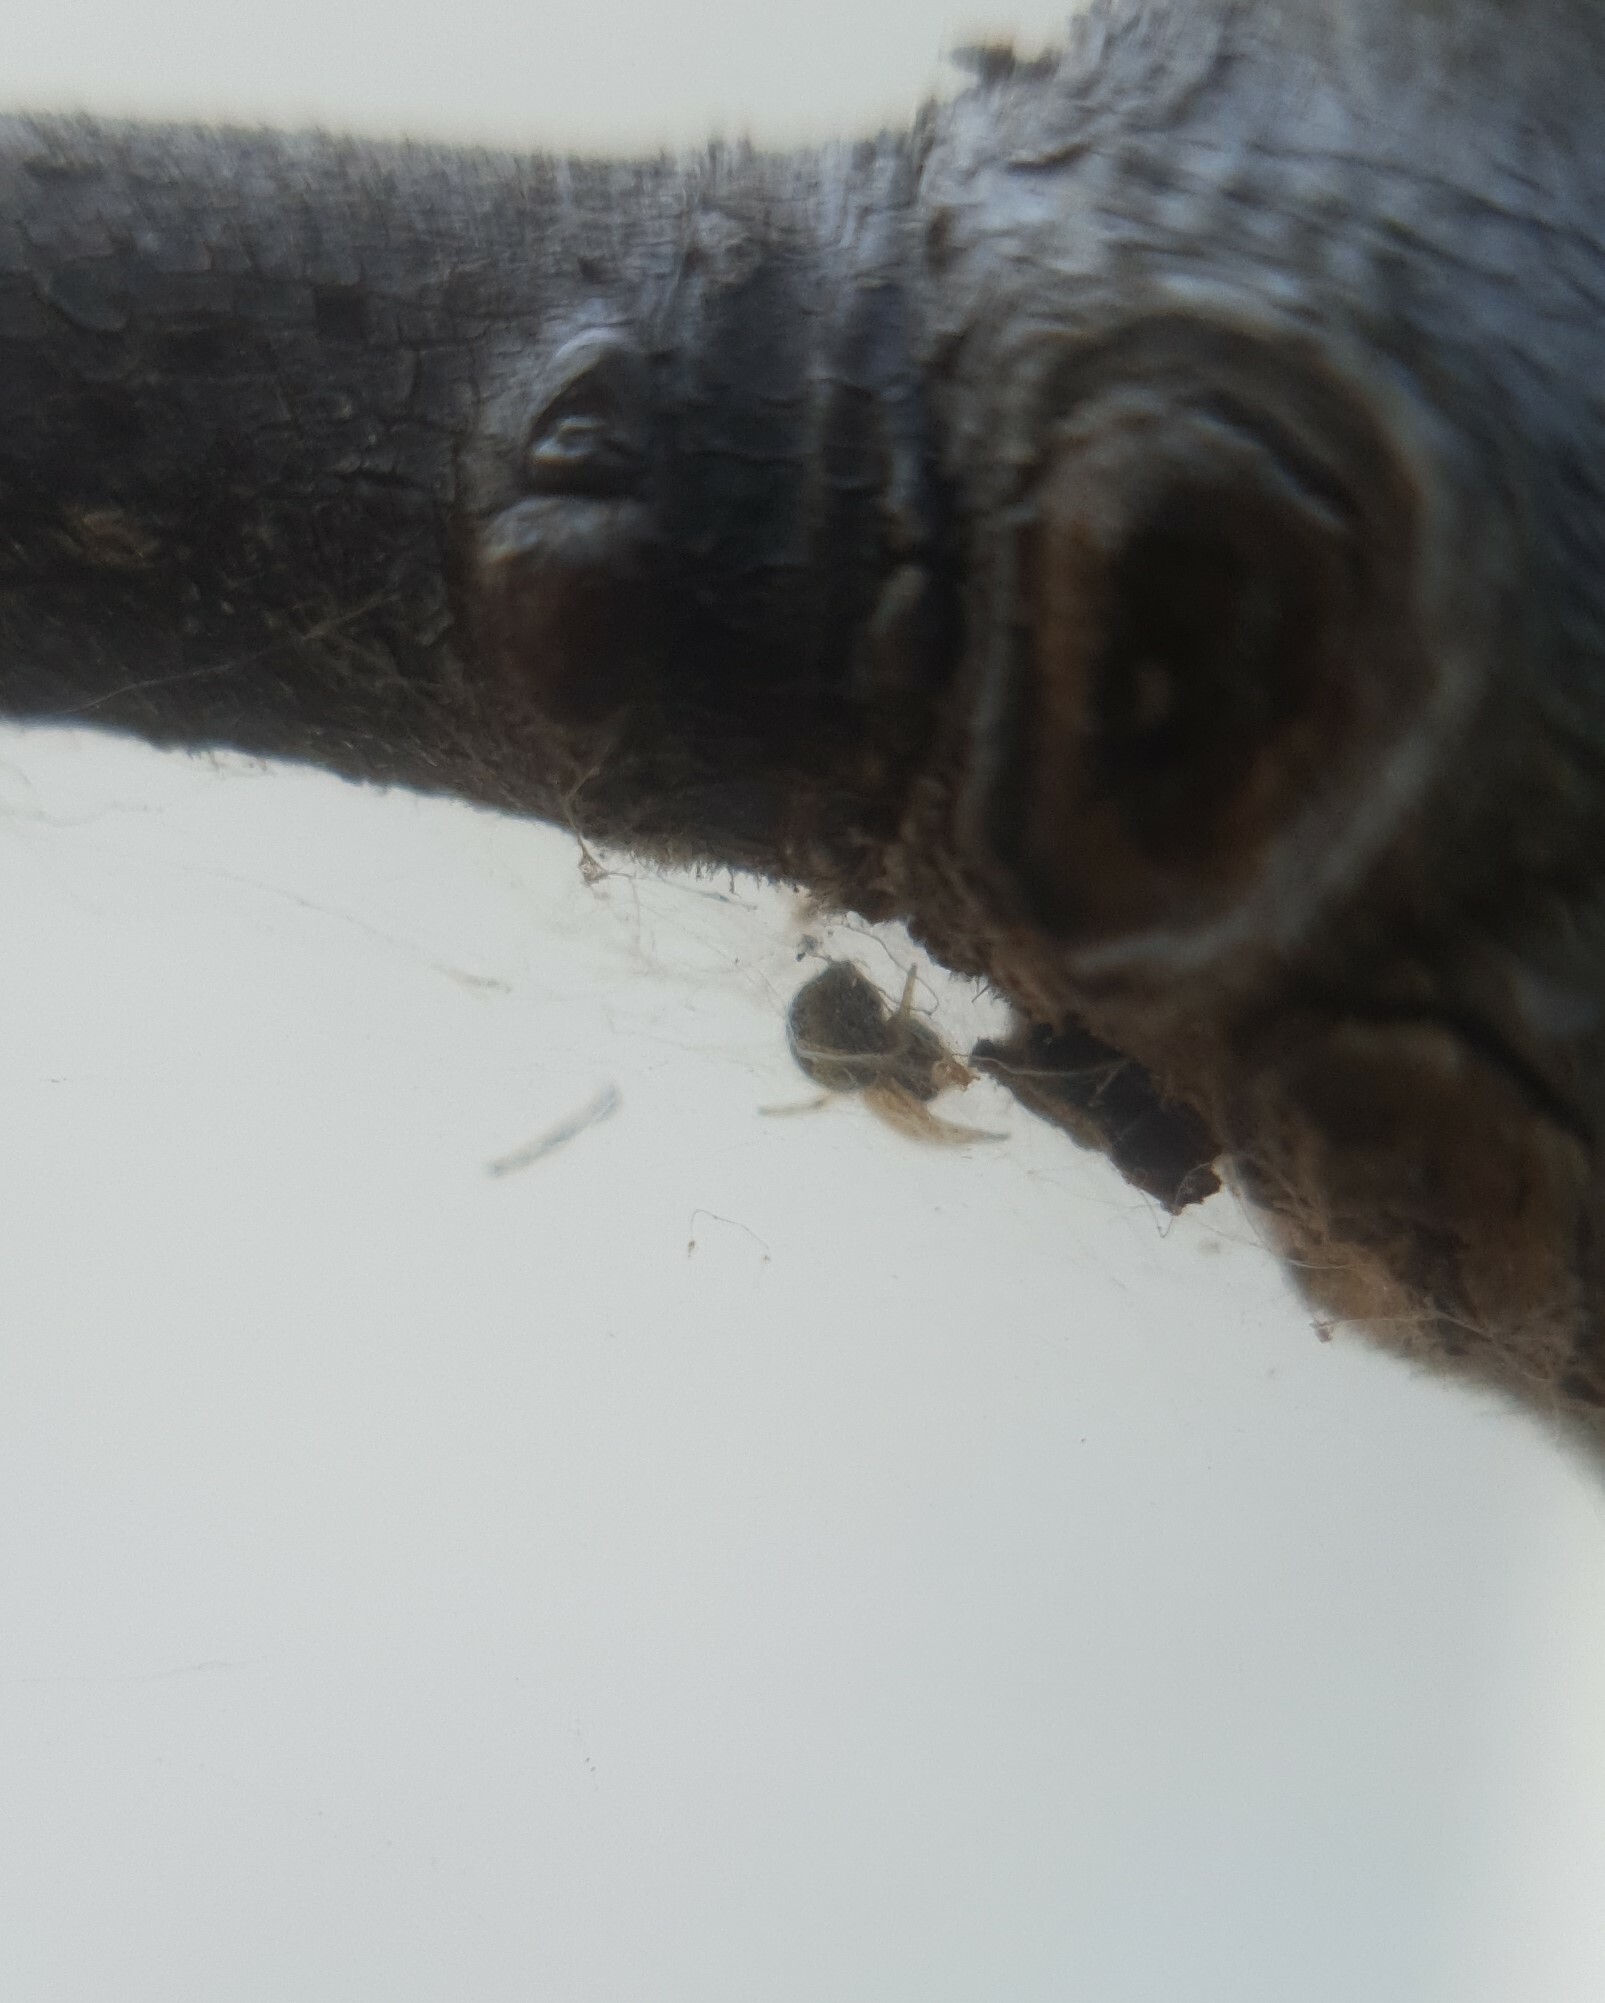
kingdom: Animalia
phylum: Arthropoda
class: Arachnida
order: Araneae
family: Araneidae
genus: Larinioides
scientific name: Larinioides
